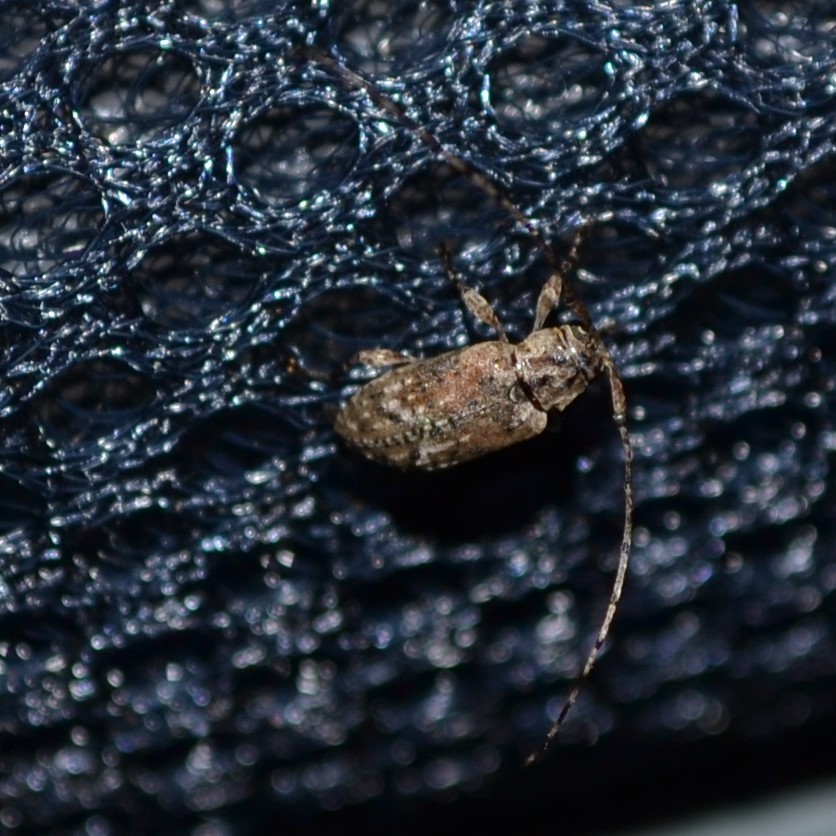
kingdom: Animalia
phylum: Arthropoda
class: Insecta
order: Coleoptera
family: Cerambycidae
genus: Sternidius
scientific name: Sternidius alpha
